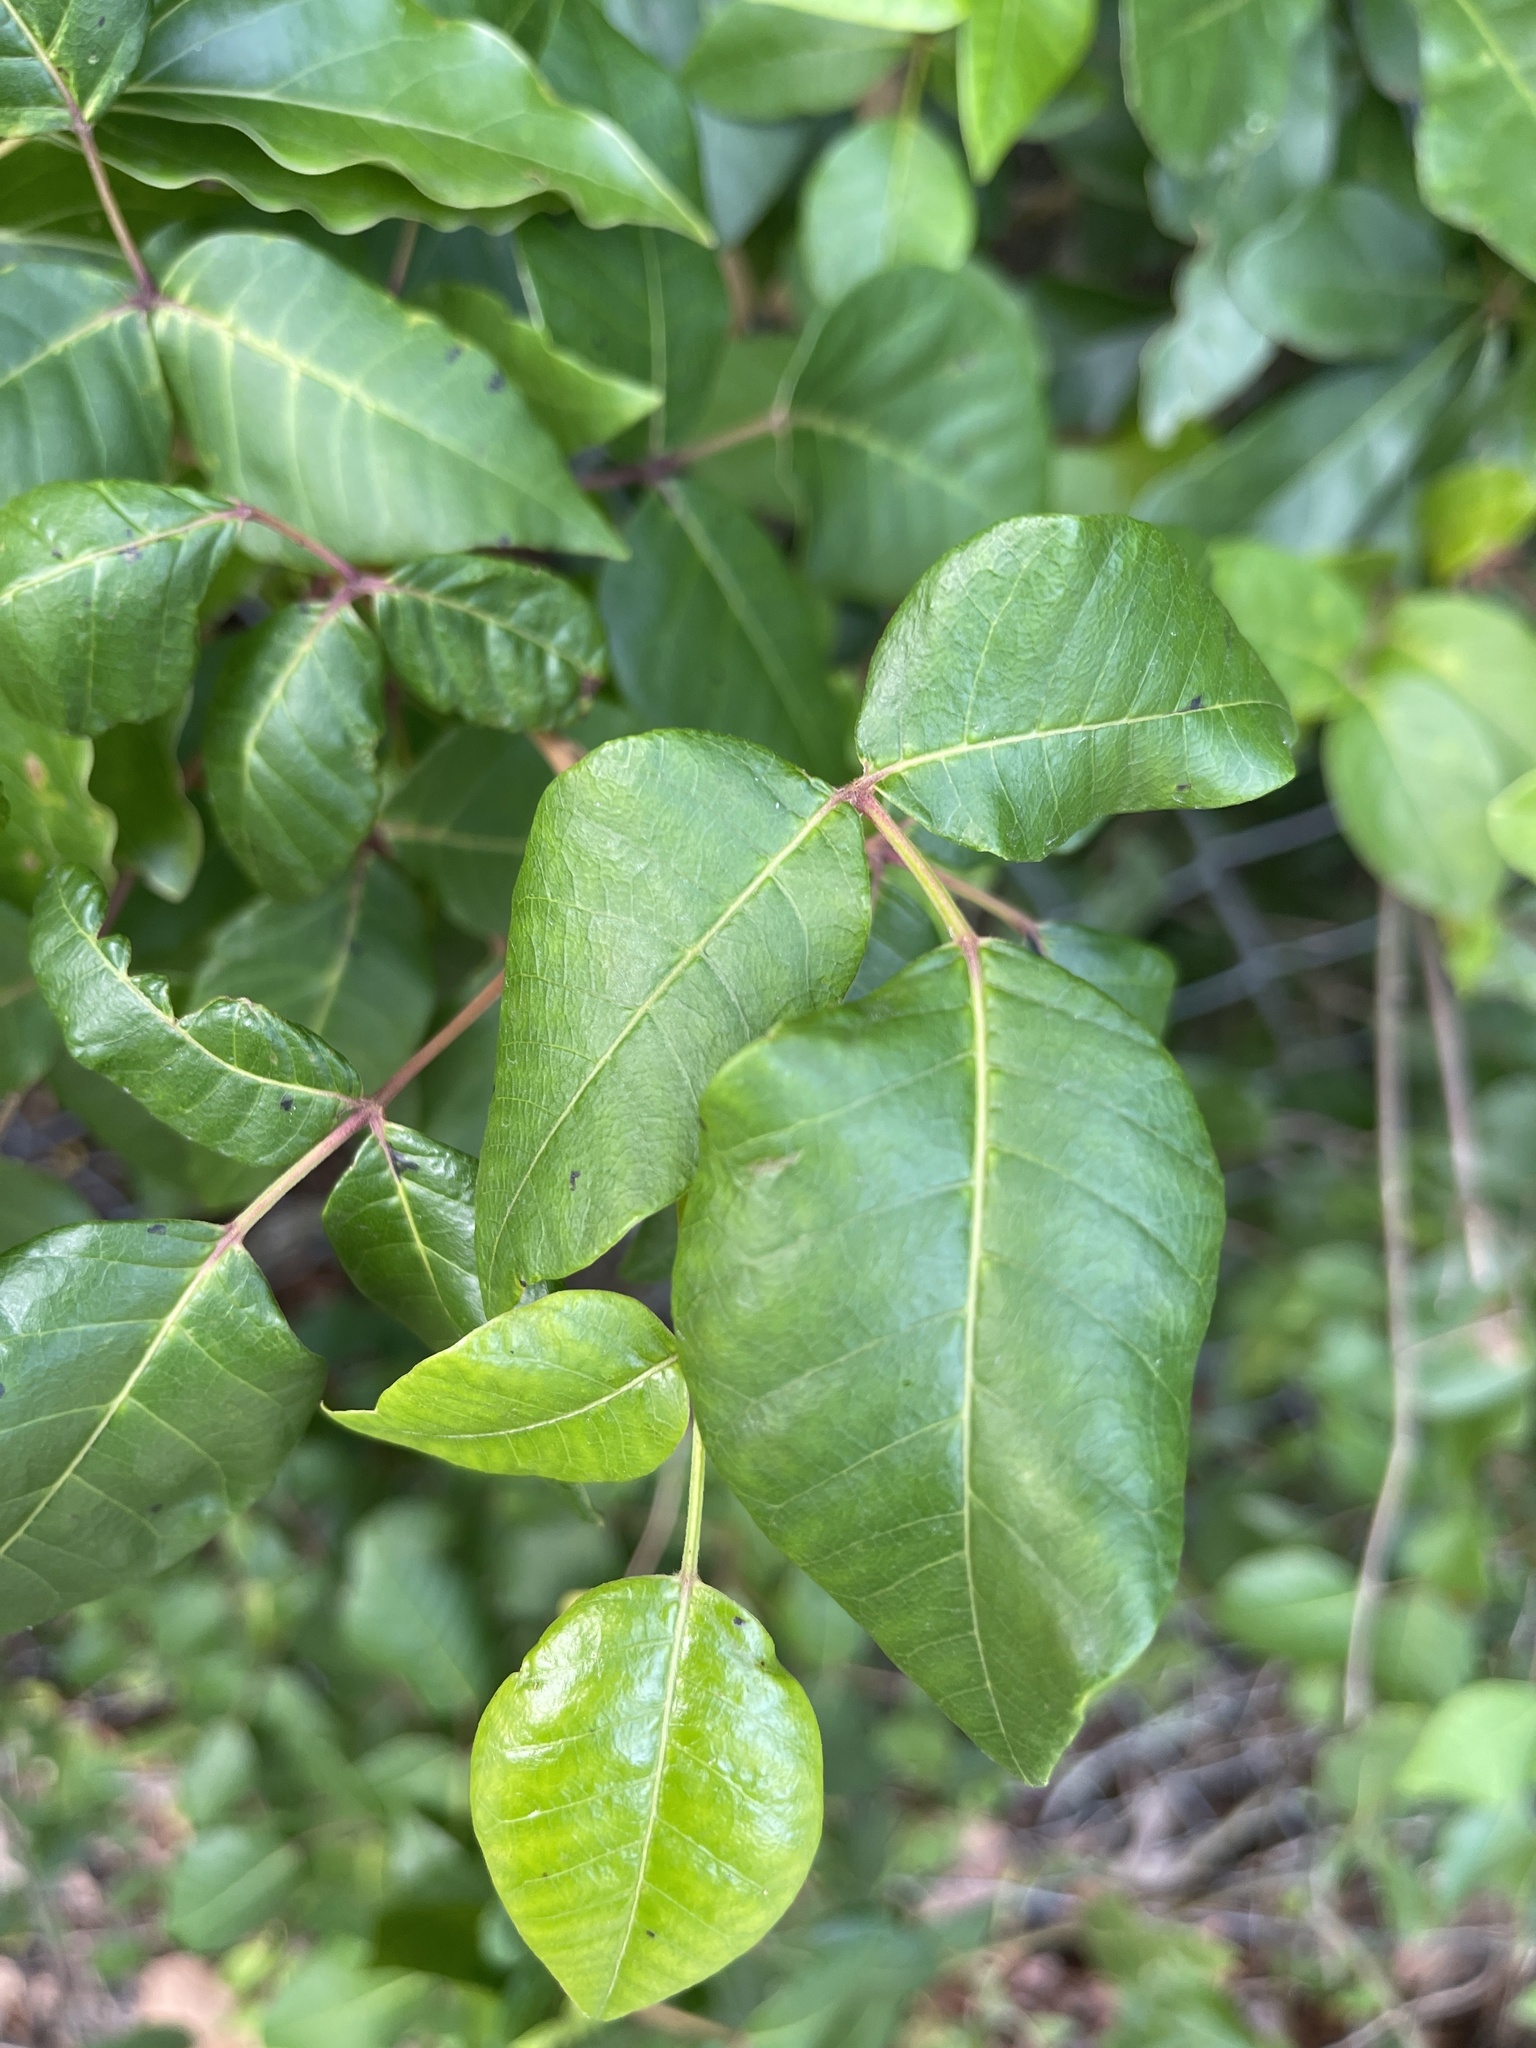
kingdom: Plantae
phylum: Tracheophyta
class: Magnoliopsida
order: Sapindales
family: Anacardiaceae
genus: Toxicodendron
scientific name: Toxicodendron radicans
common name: Poison ivy
